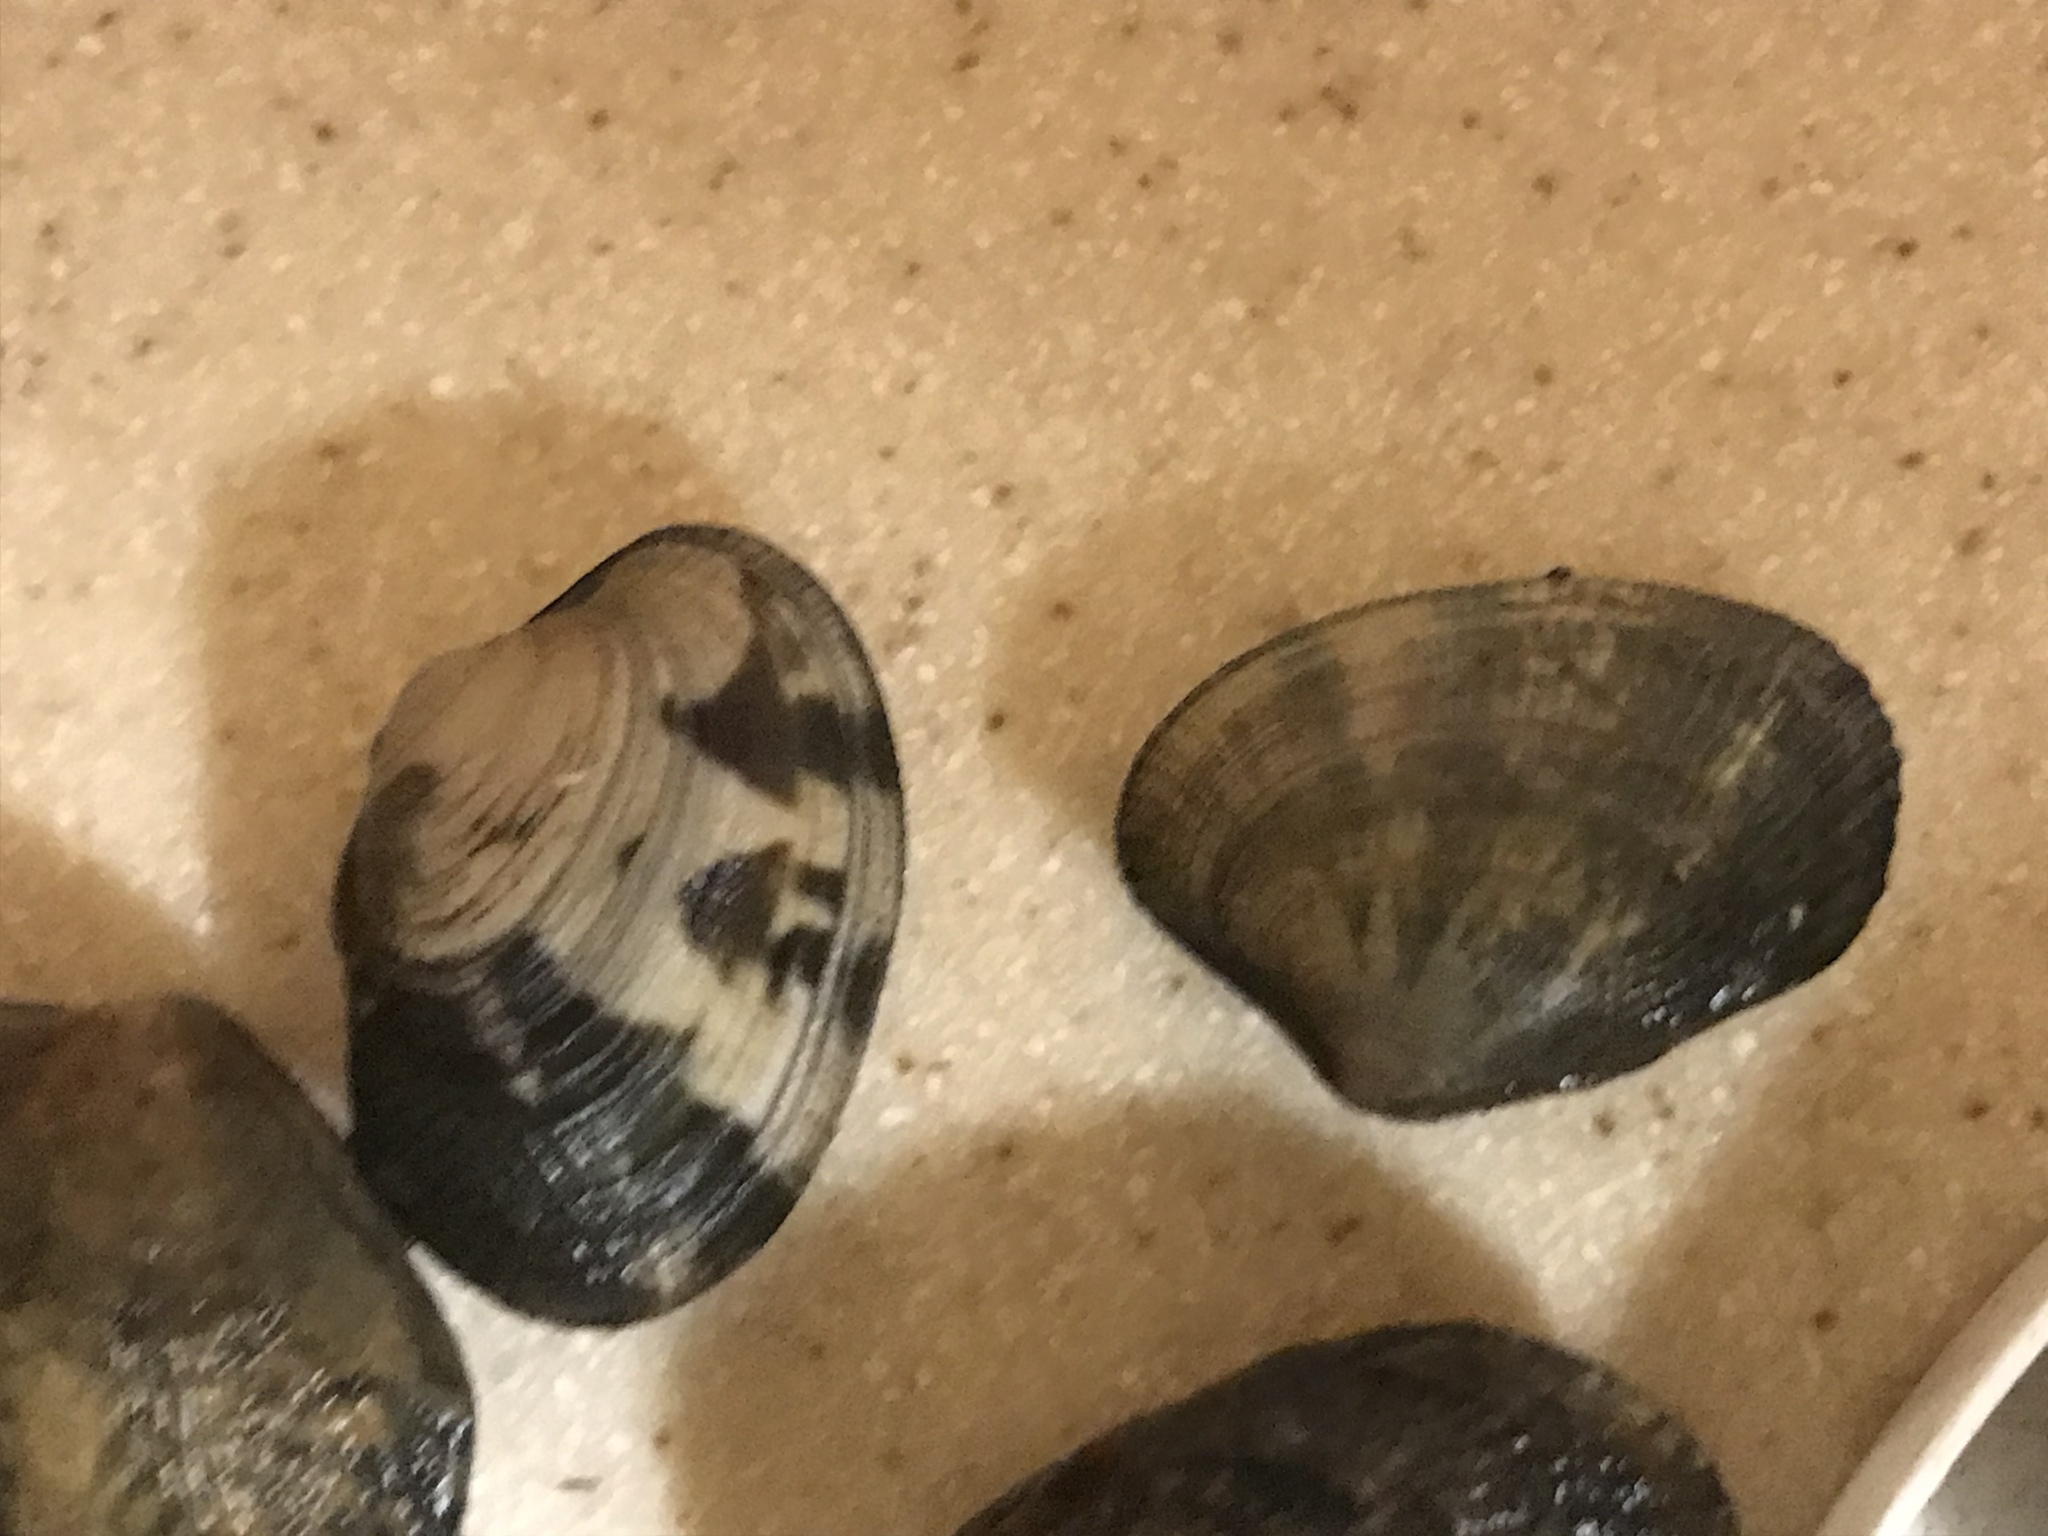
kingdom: Animalia
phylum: Mollusca
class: Bivalvia
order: Venerida
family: Veneridae
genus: Ruditapes
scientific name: Ruditapes philippinarum
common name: Manila clam
